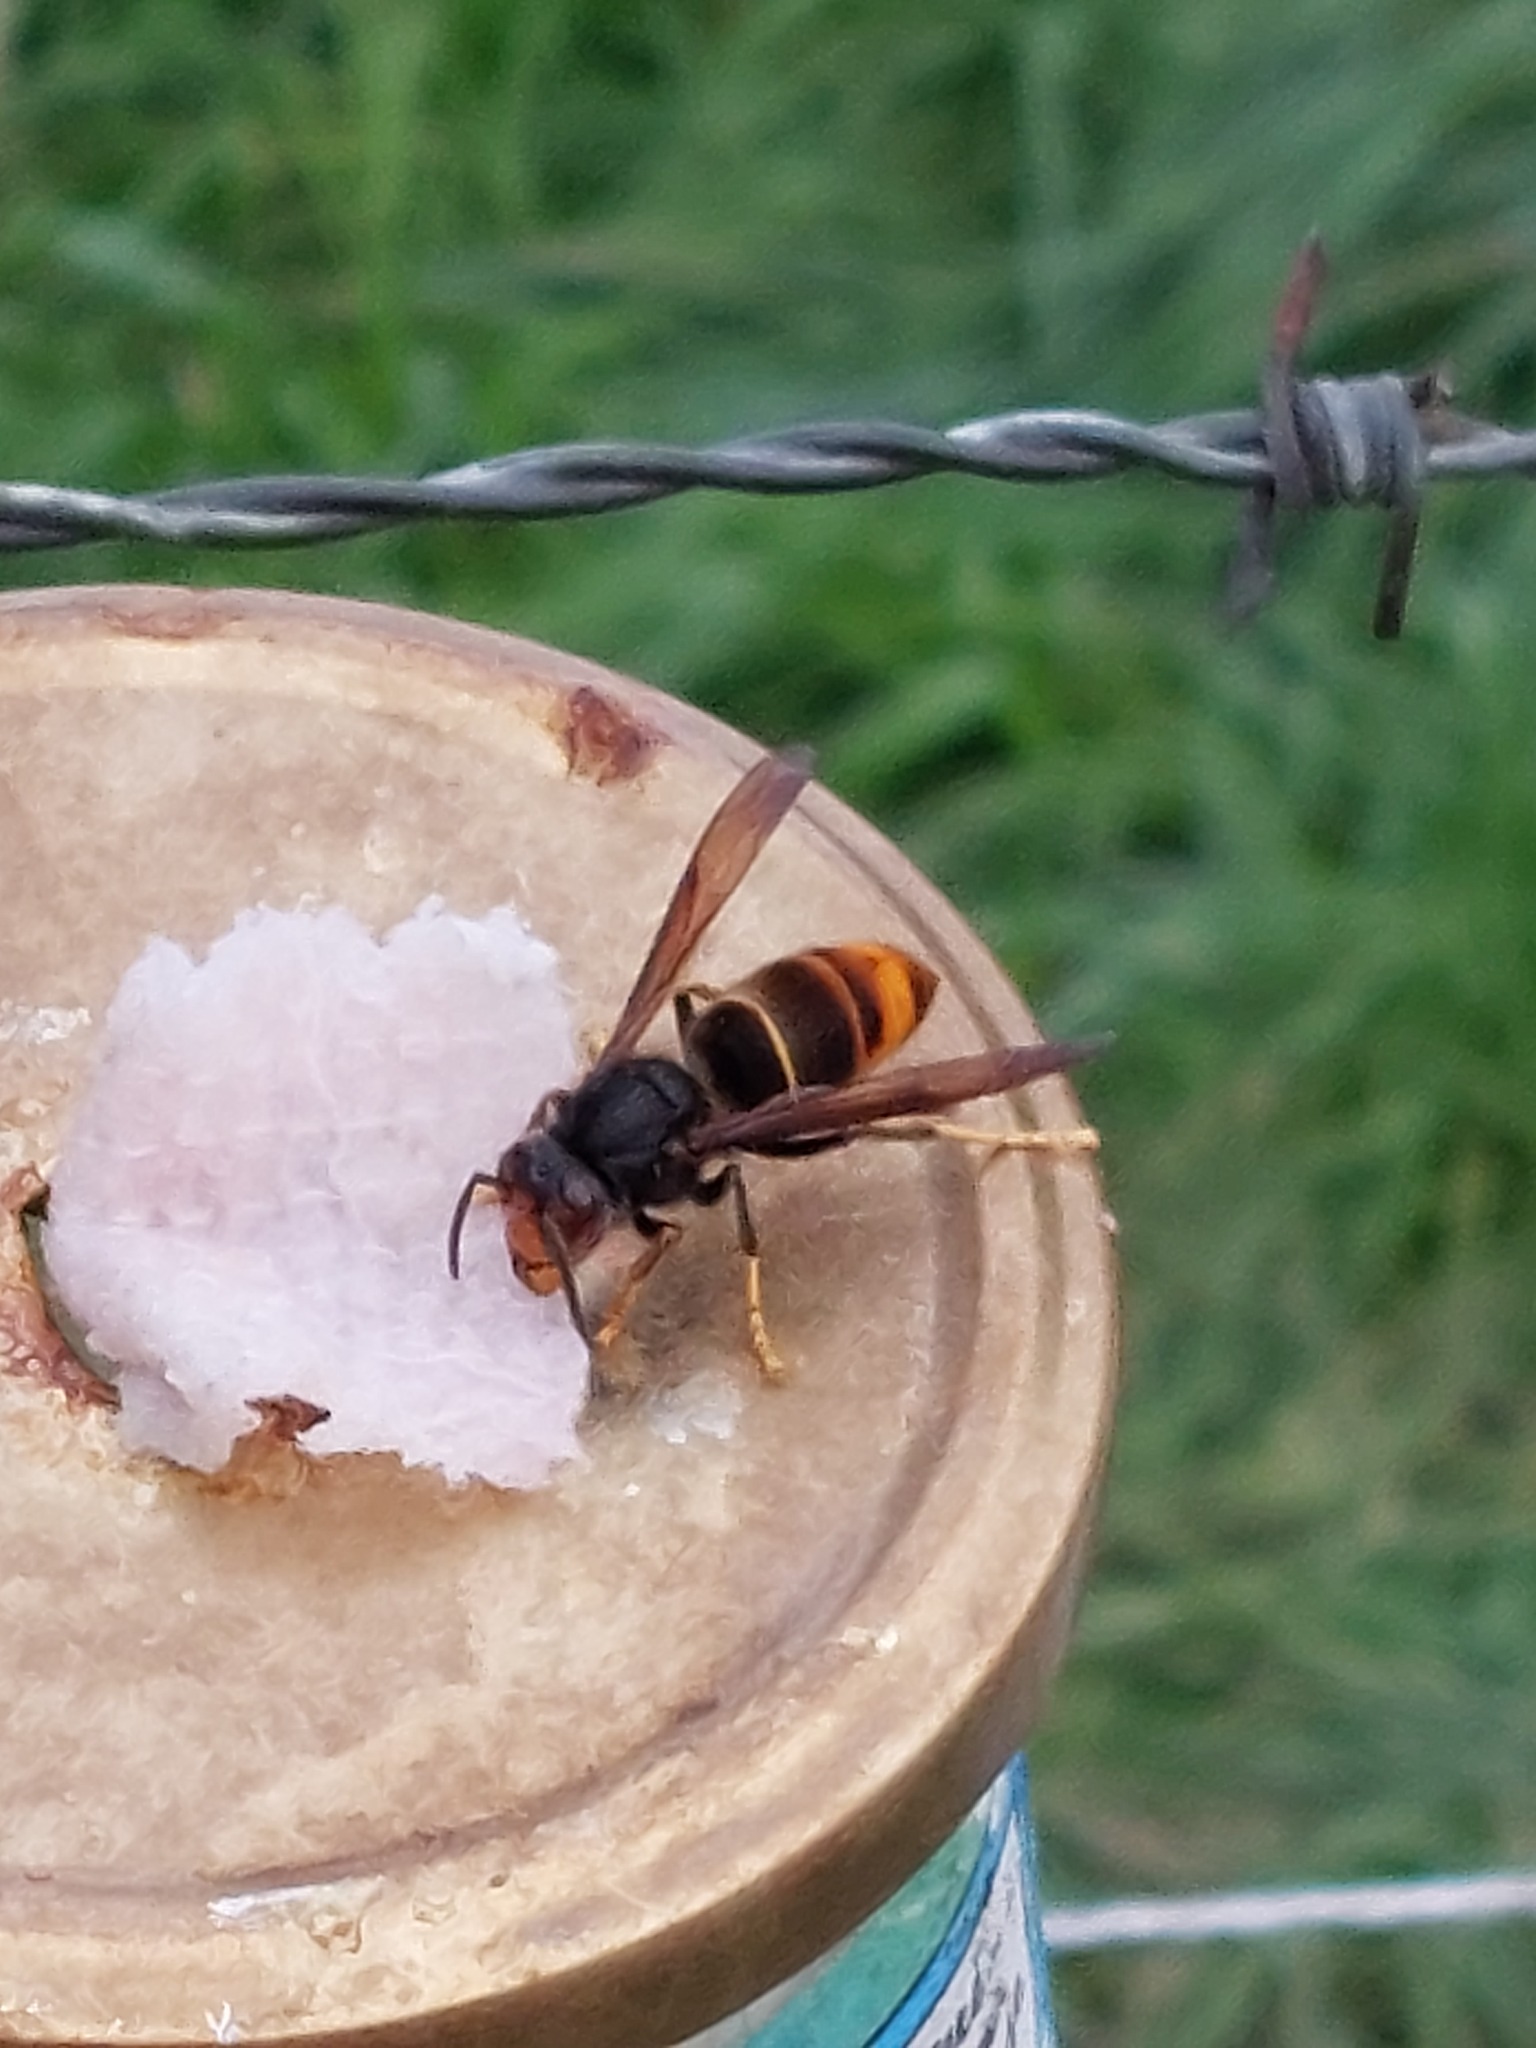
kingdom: Animalia
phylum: Arthropoda
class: Insecta
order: Hymenoptera
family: Vespidae
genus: Vespa
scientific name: Vespa velutina
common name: Asian hornet
